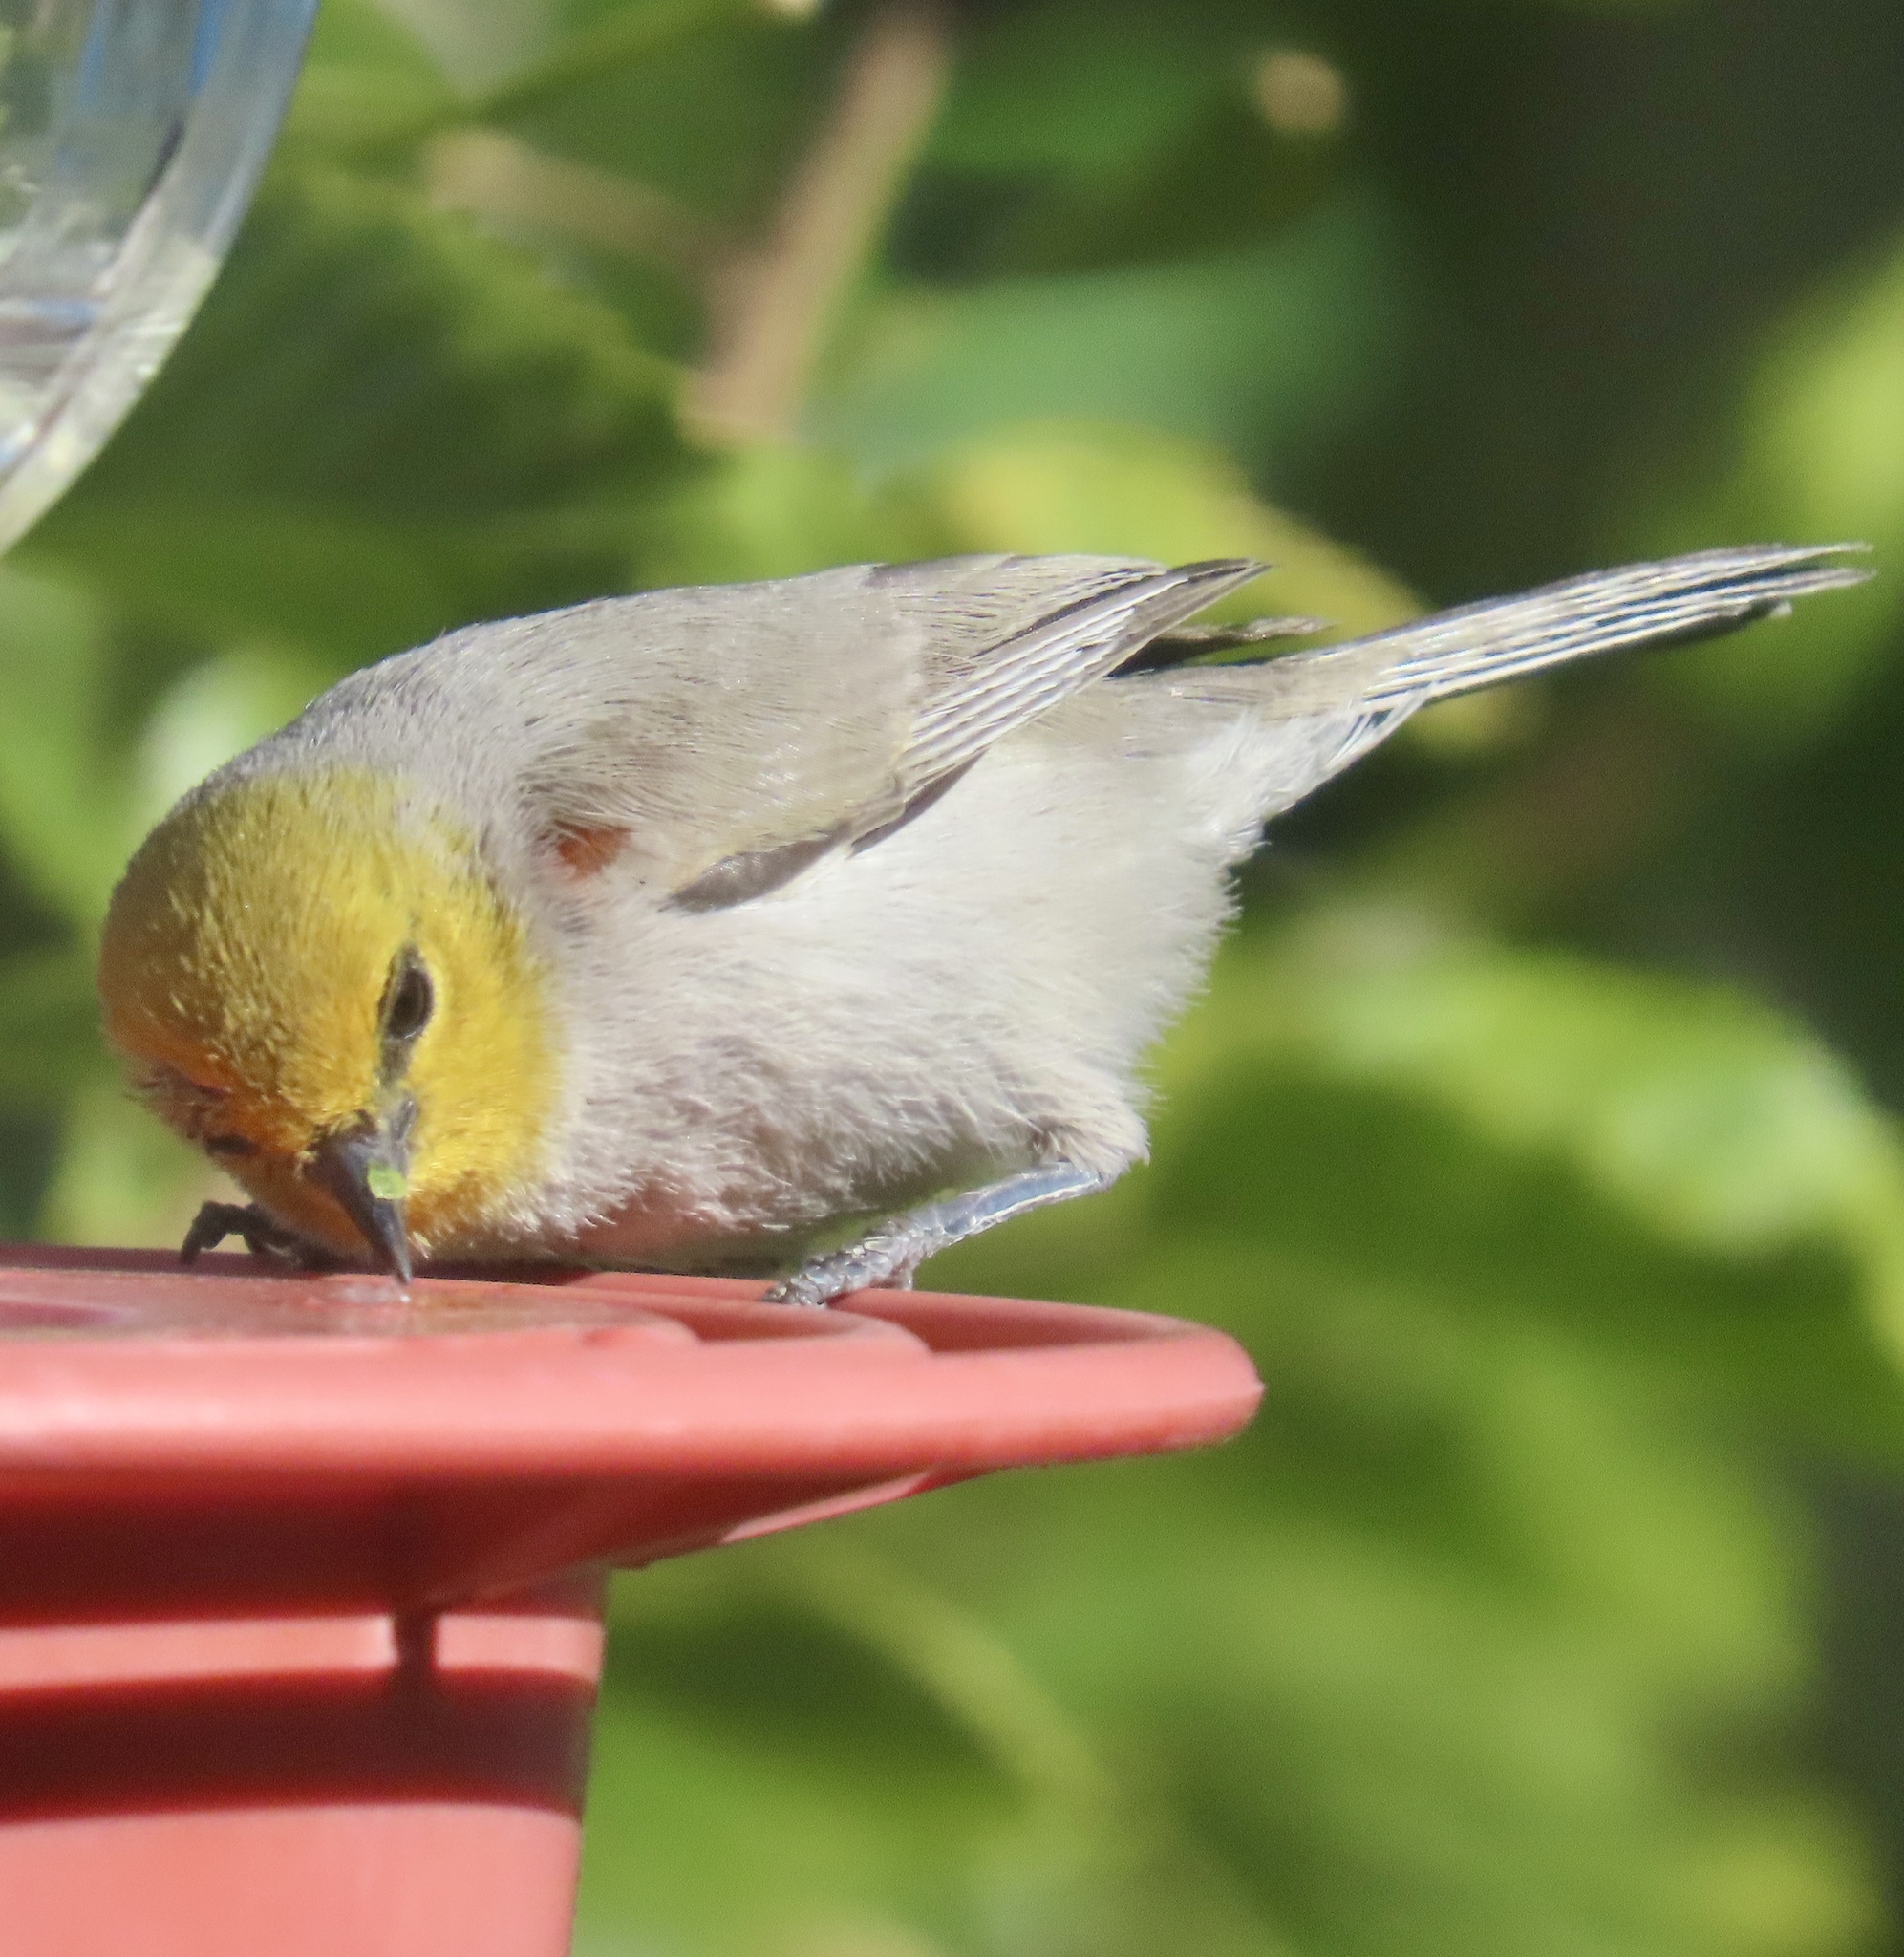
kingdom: Animalia
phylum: Chordata
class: Aves
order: Passeriformes
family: Remizidae
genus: Auriparus
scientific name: Auriparus flaviceps
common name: Verdin
